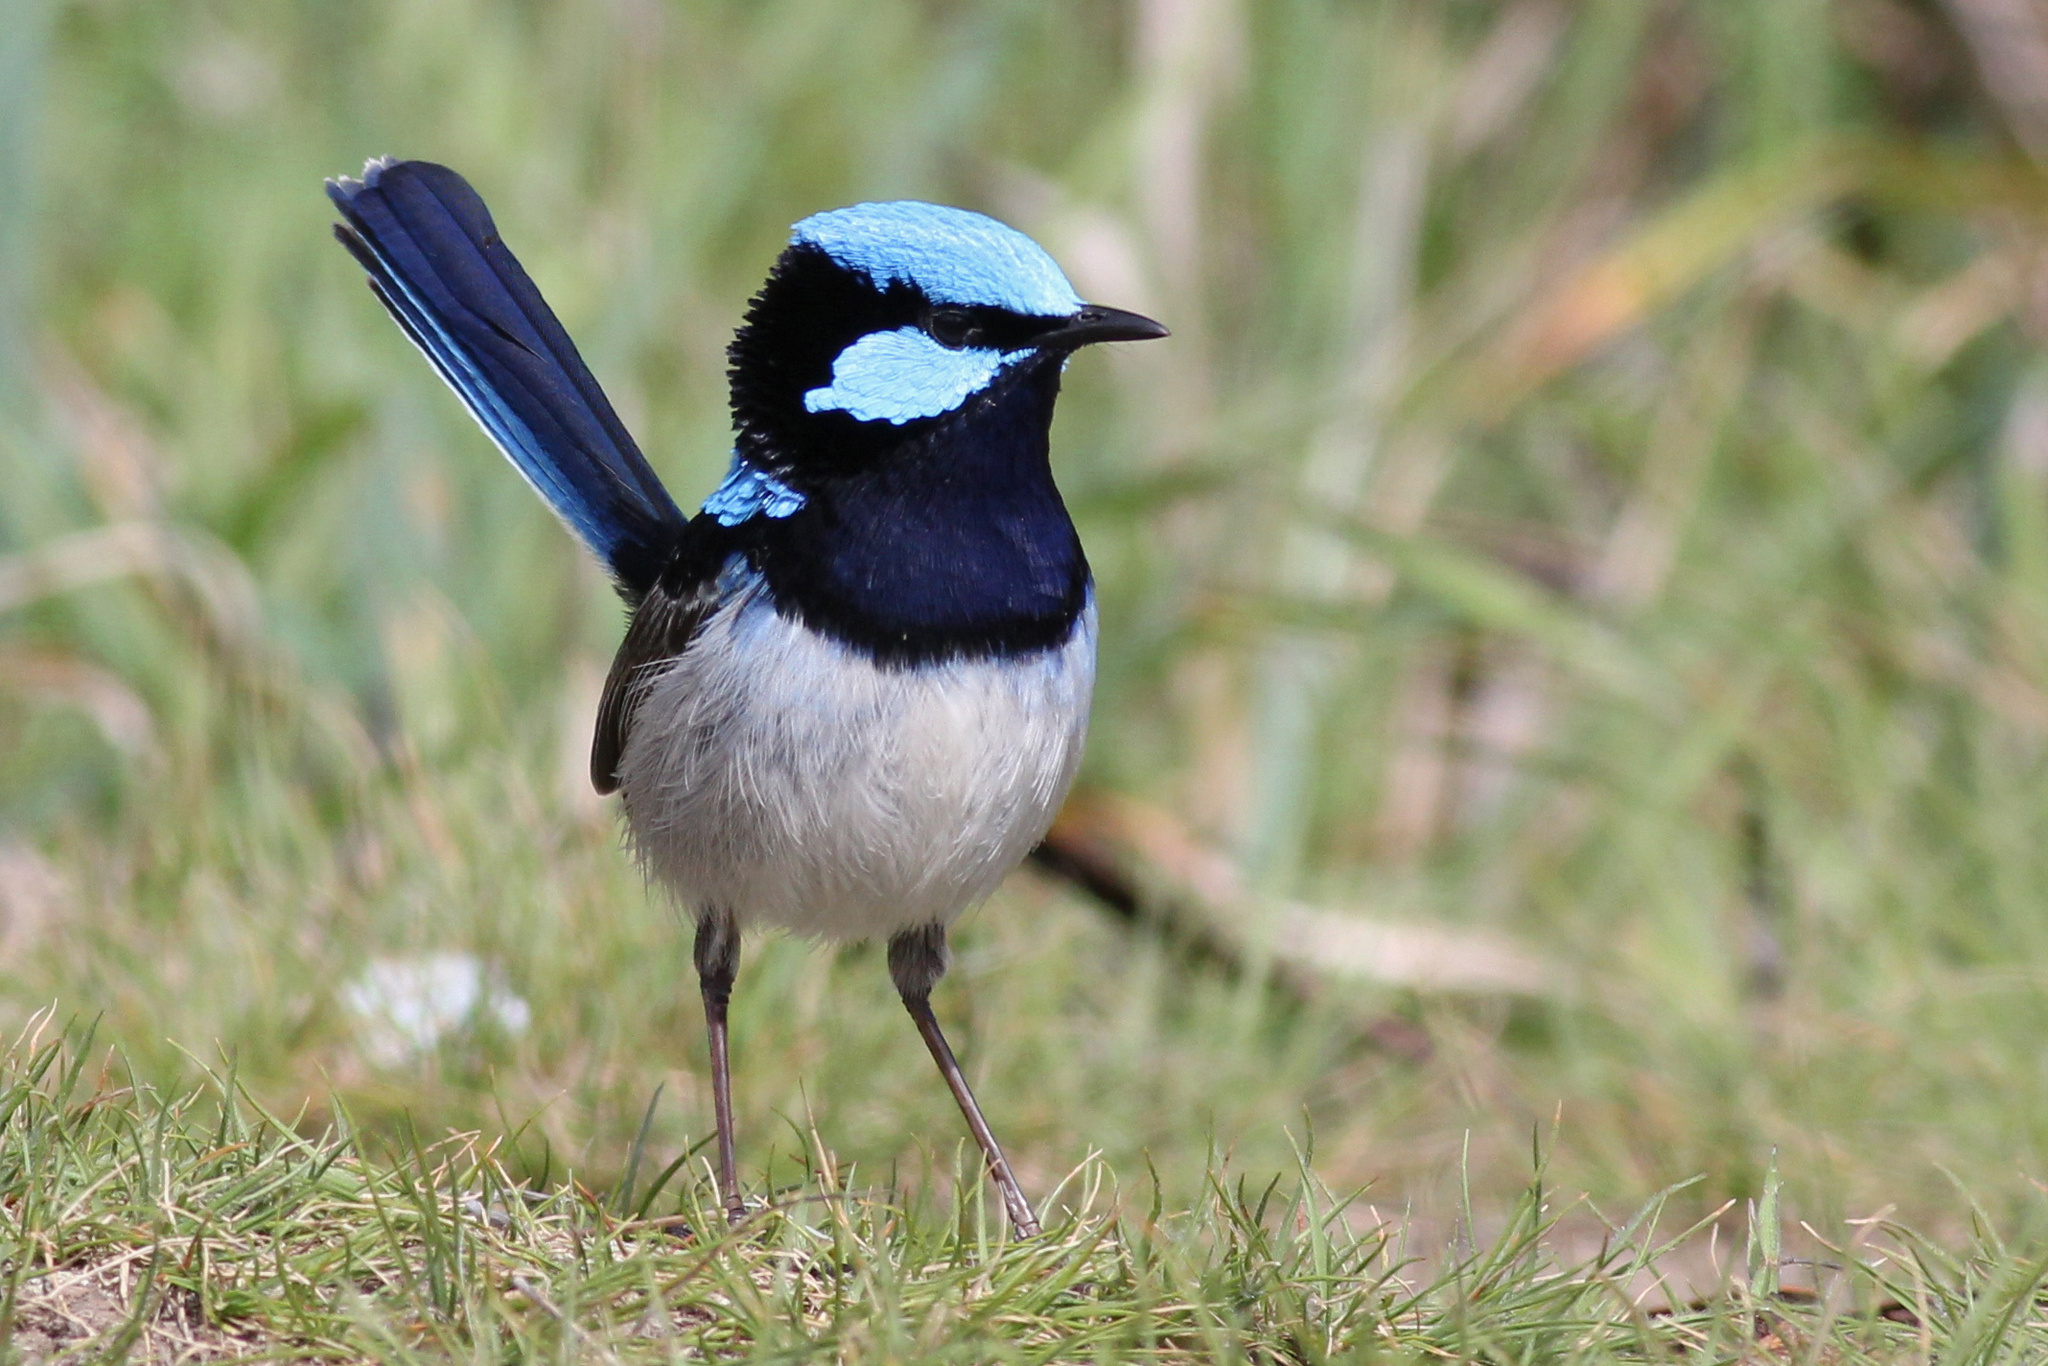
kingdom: Animalia
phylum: Chordata
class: Aves
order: Passeriformes
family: Maluridae
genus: Malurus
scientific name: Malurus cyaneus
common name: Superb fairywren
